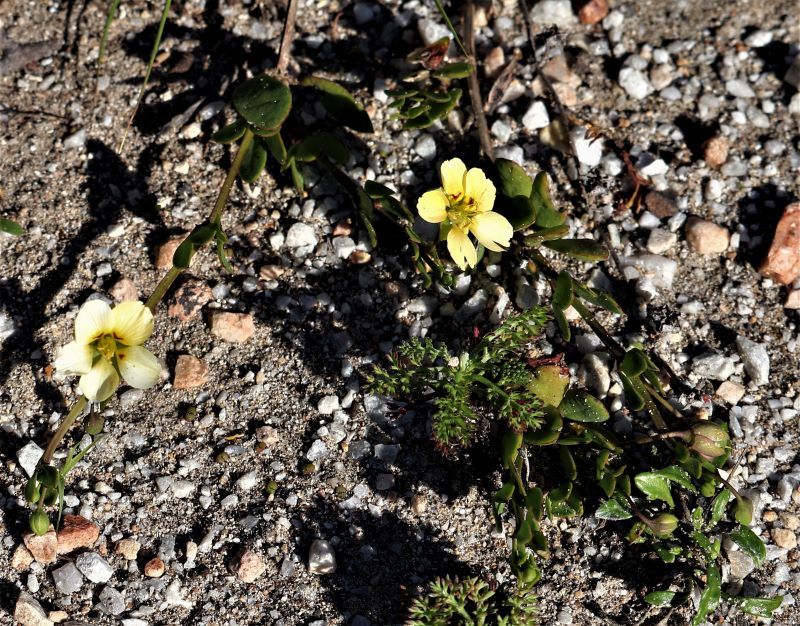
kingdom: Plantae
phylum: Tracheophyta
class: Magnoliopsida
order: Zygophyllales
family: Zygophyllaceae
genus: Roepera
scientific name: Roepera maritima
